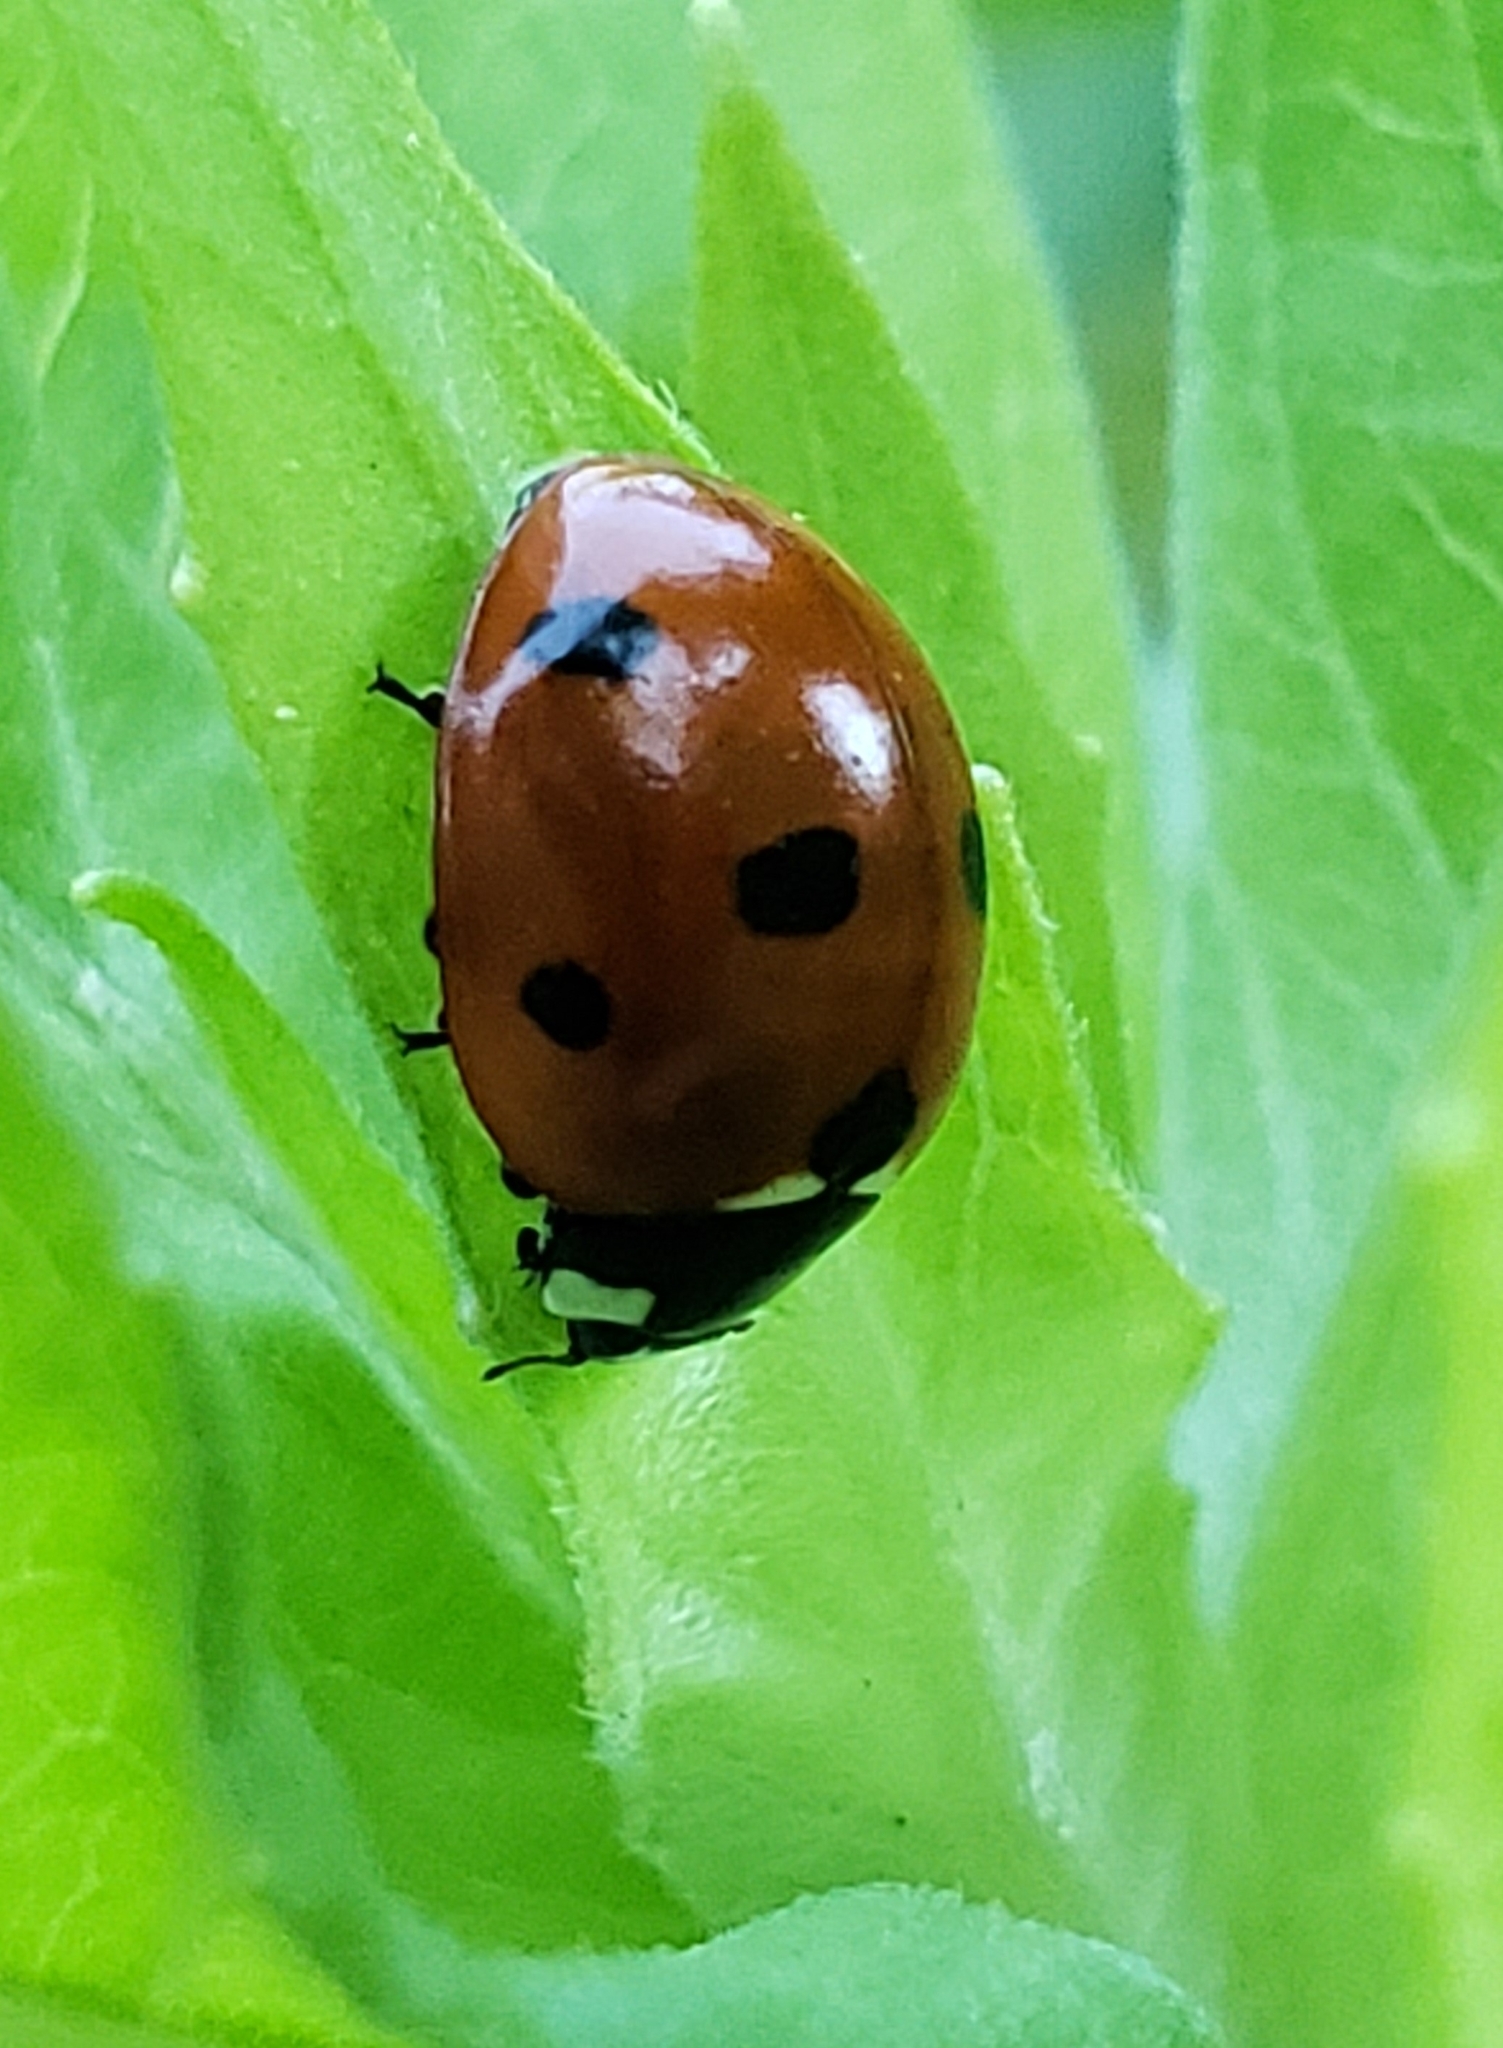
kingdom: Animalia
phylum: Arthropoda
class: Insecta
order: Coleoptera
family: Coccinellidae
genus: Coccinella
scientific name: Coccinella septempunctata
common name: Sevenspotted lady beetle
